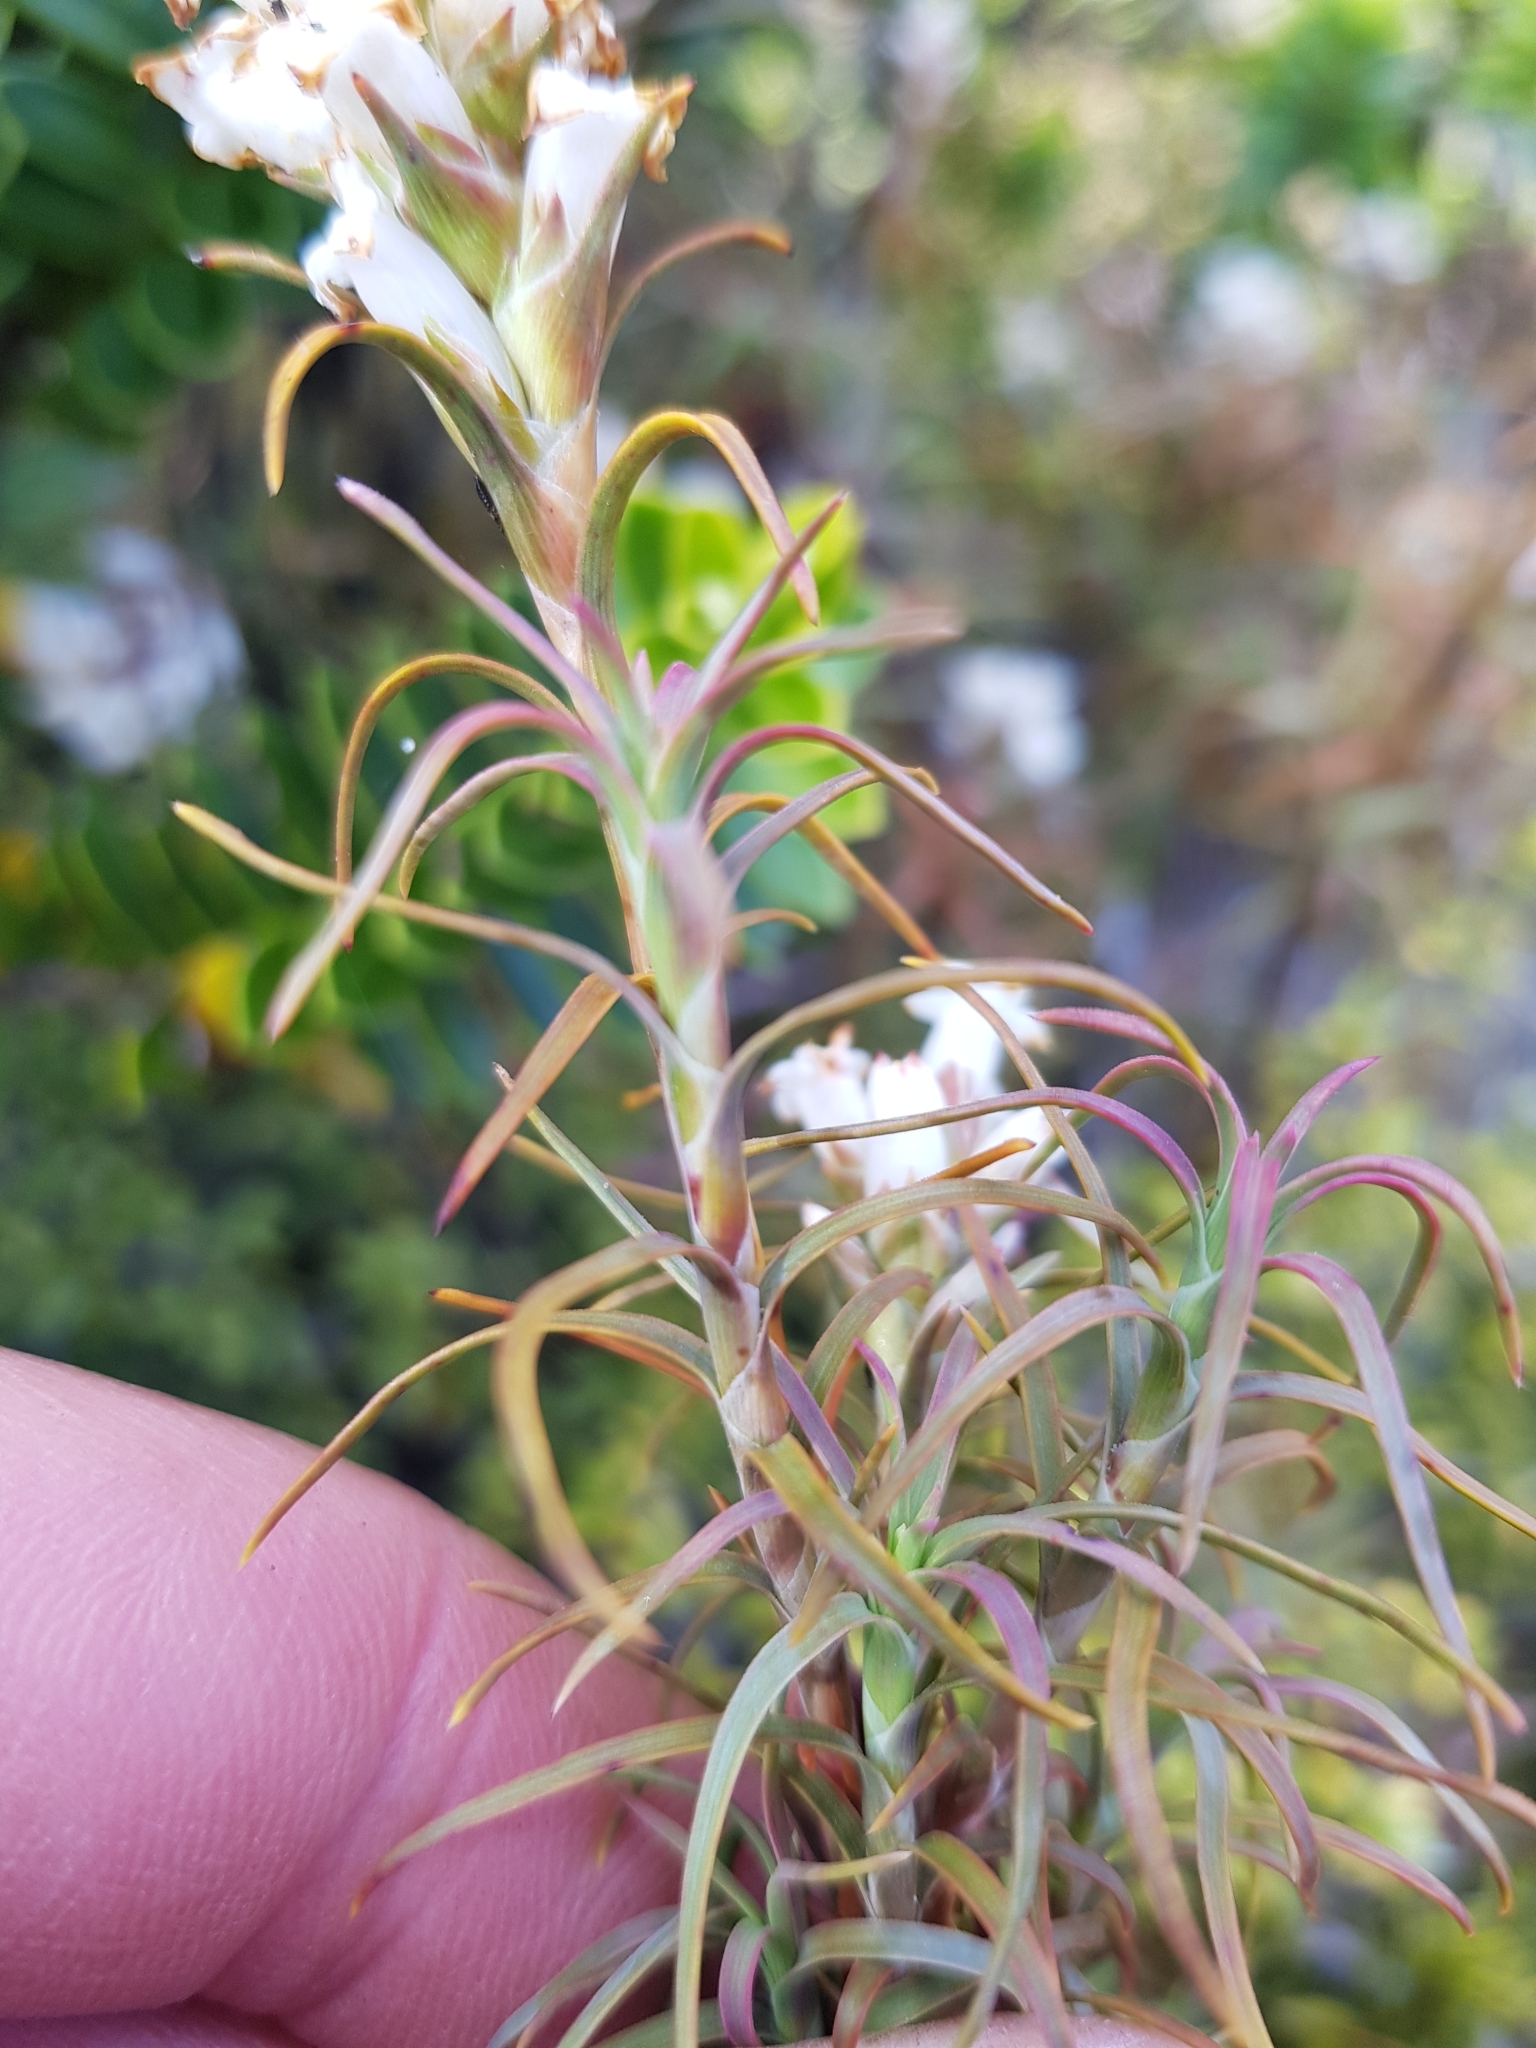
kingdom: Plantae
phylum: Tracheophyta
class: Magnoliopsida
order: Ericales
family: Ericaceae
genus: Dracophyllum
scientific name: Dracophyllum recurvum
